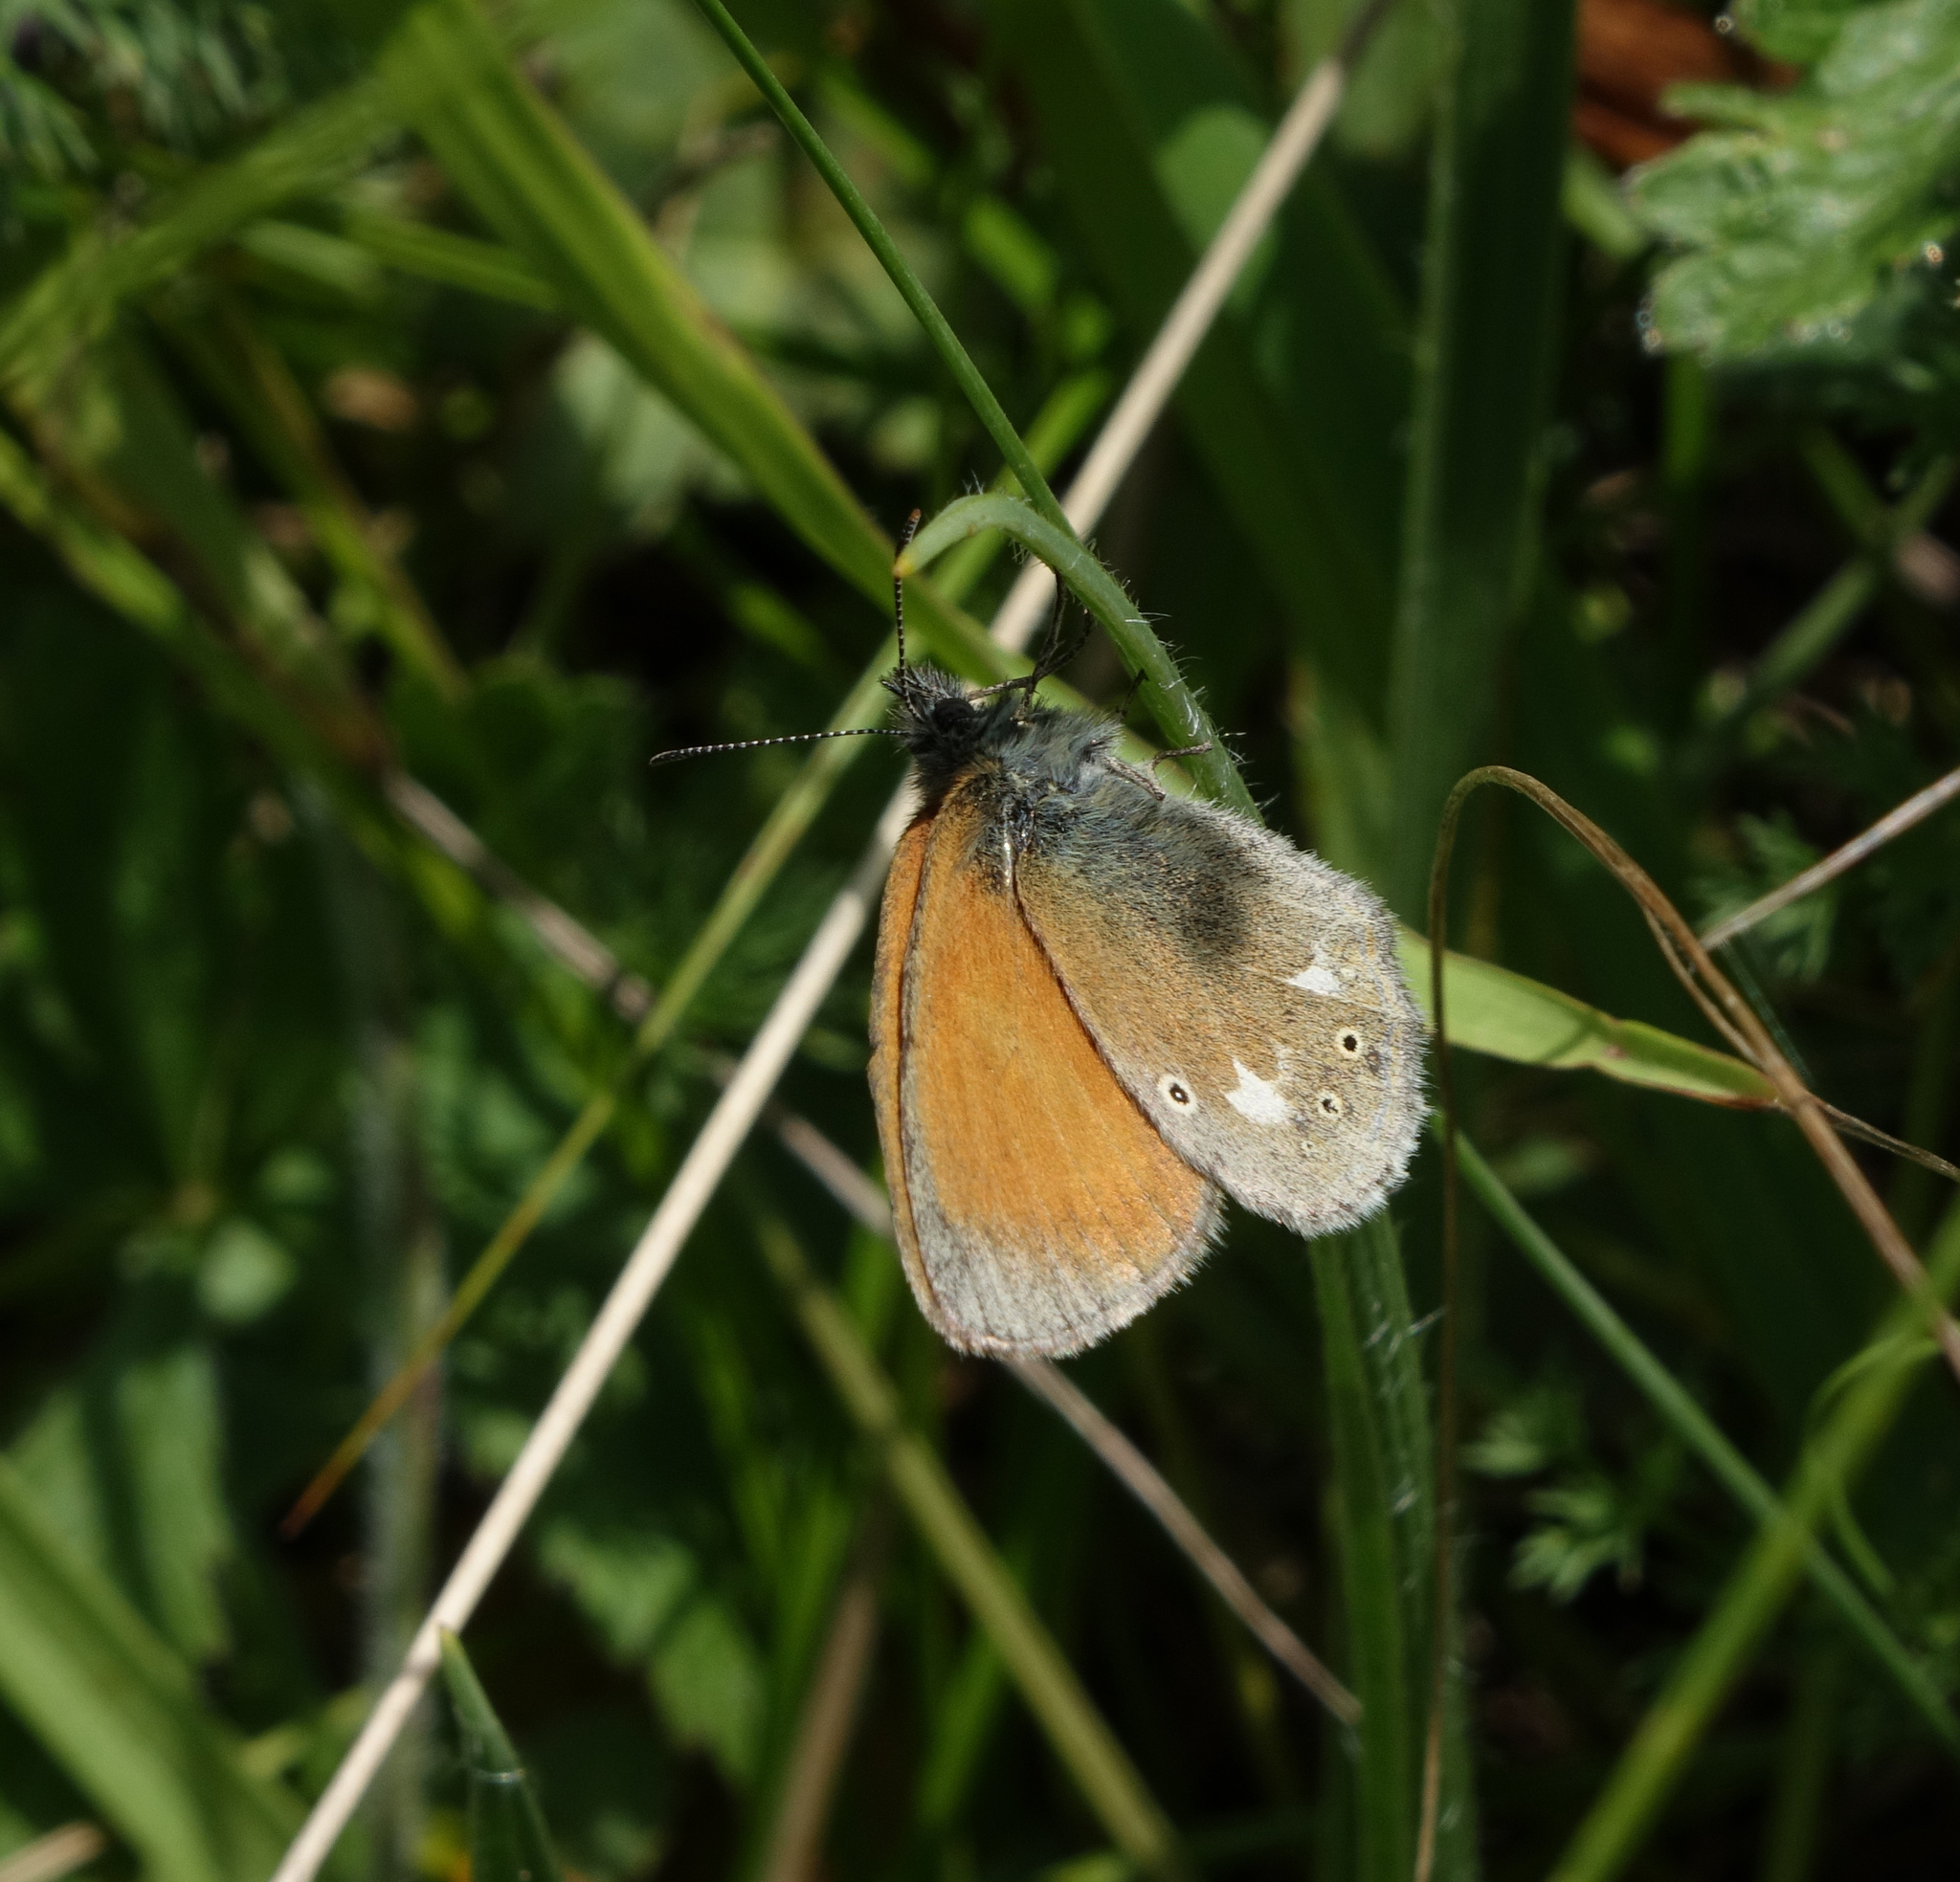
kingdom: Animalia
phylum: Arthropoda
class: Insecta
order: Lepidoptera
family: Nymphalidae
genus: Coenonympha
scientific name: Coenonympha iphis
